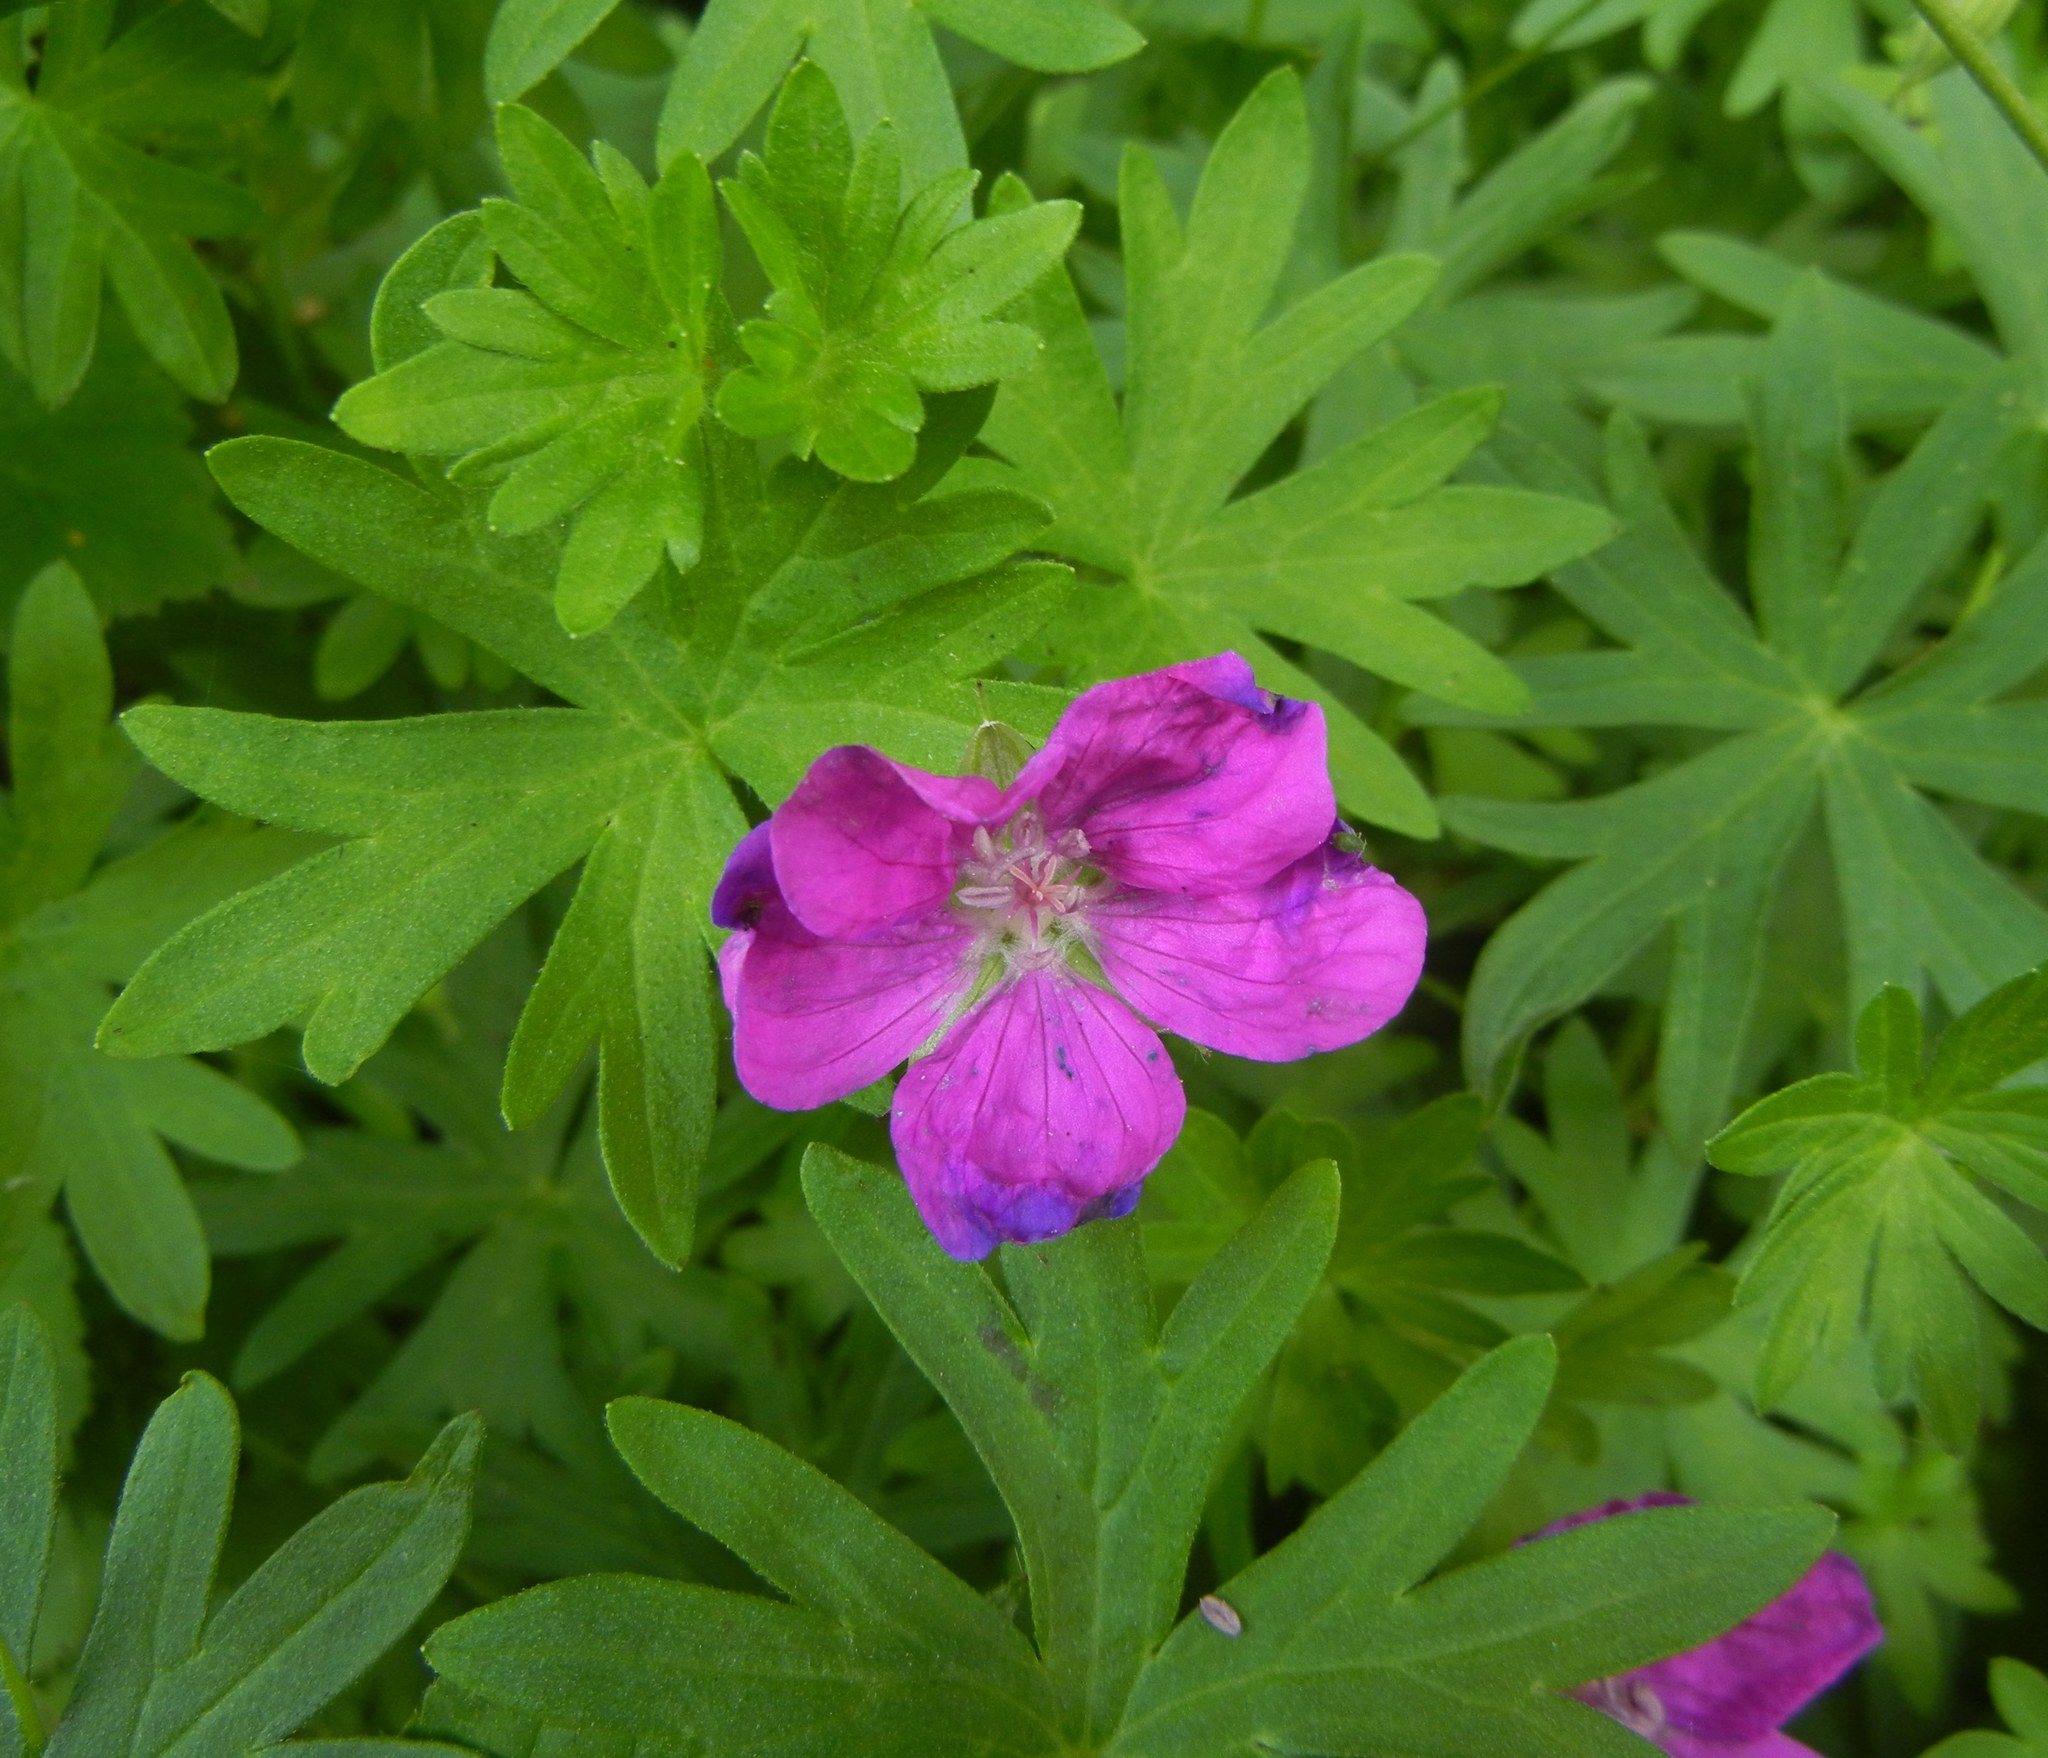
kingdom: Plantae
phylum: Tracheophyta
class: Magnoliopsida
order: Geraniales
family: Geraniaceae
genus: Geranium
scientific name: Geranium sanguineum
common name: Bloody crane's-bill
